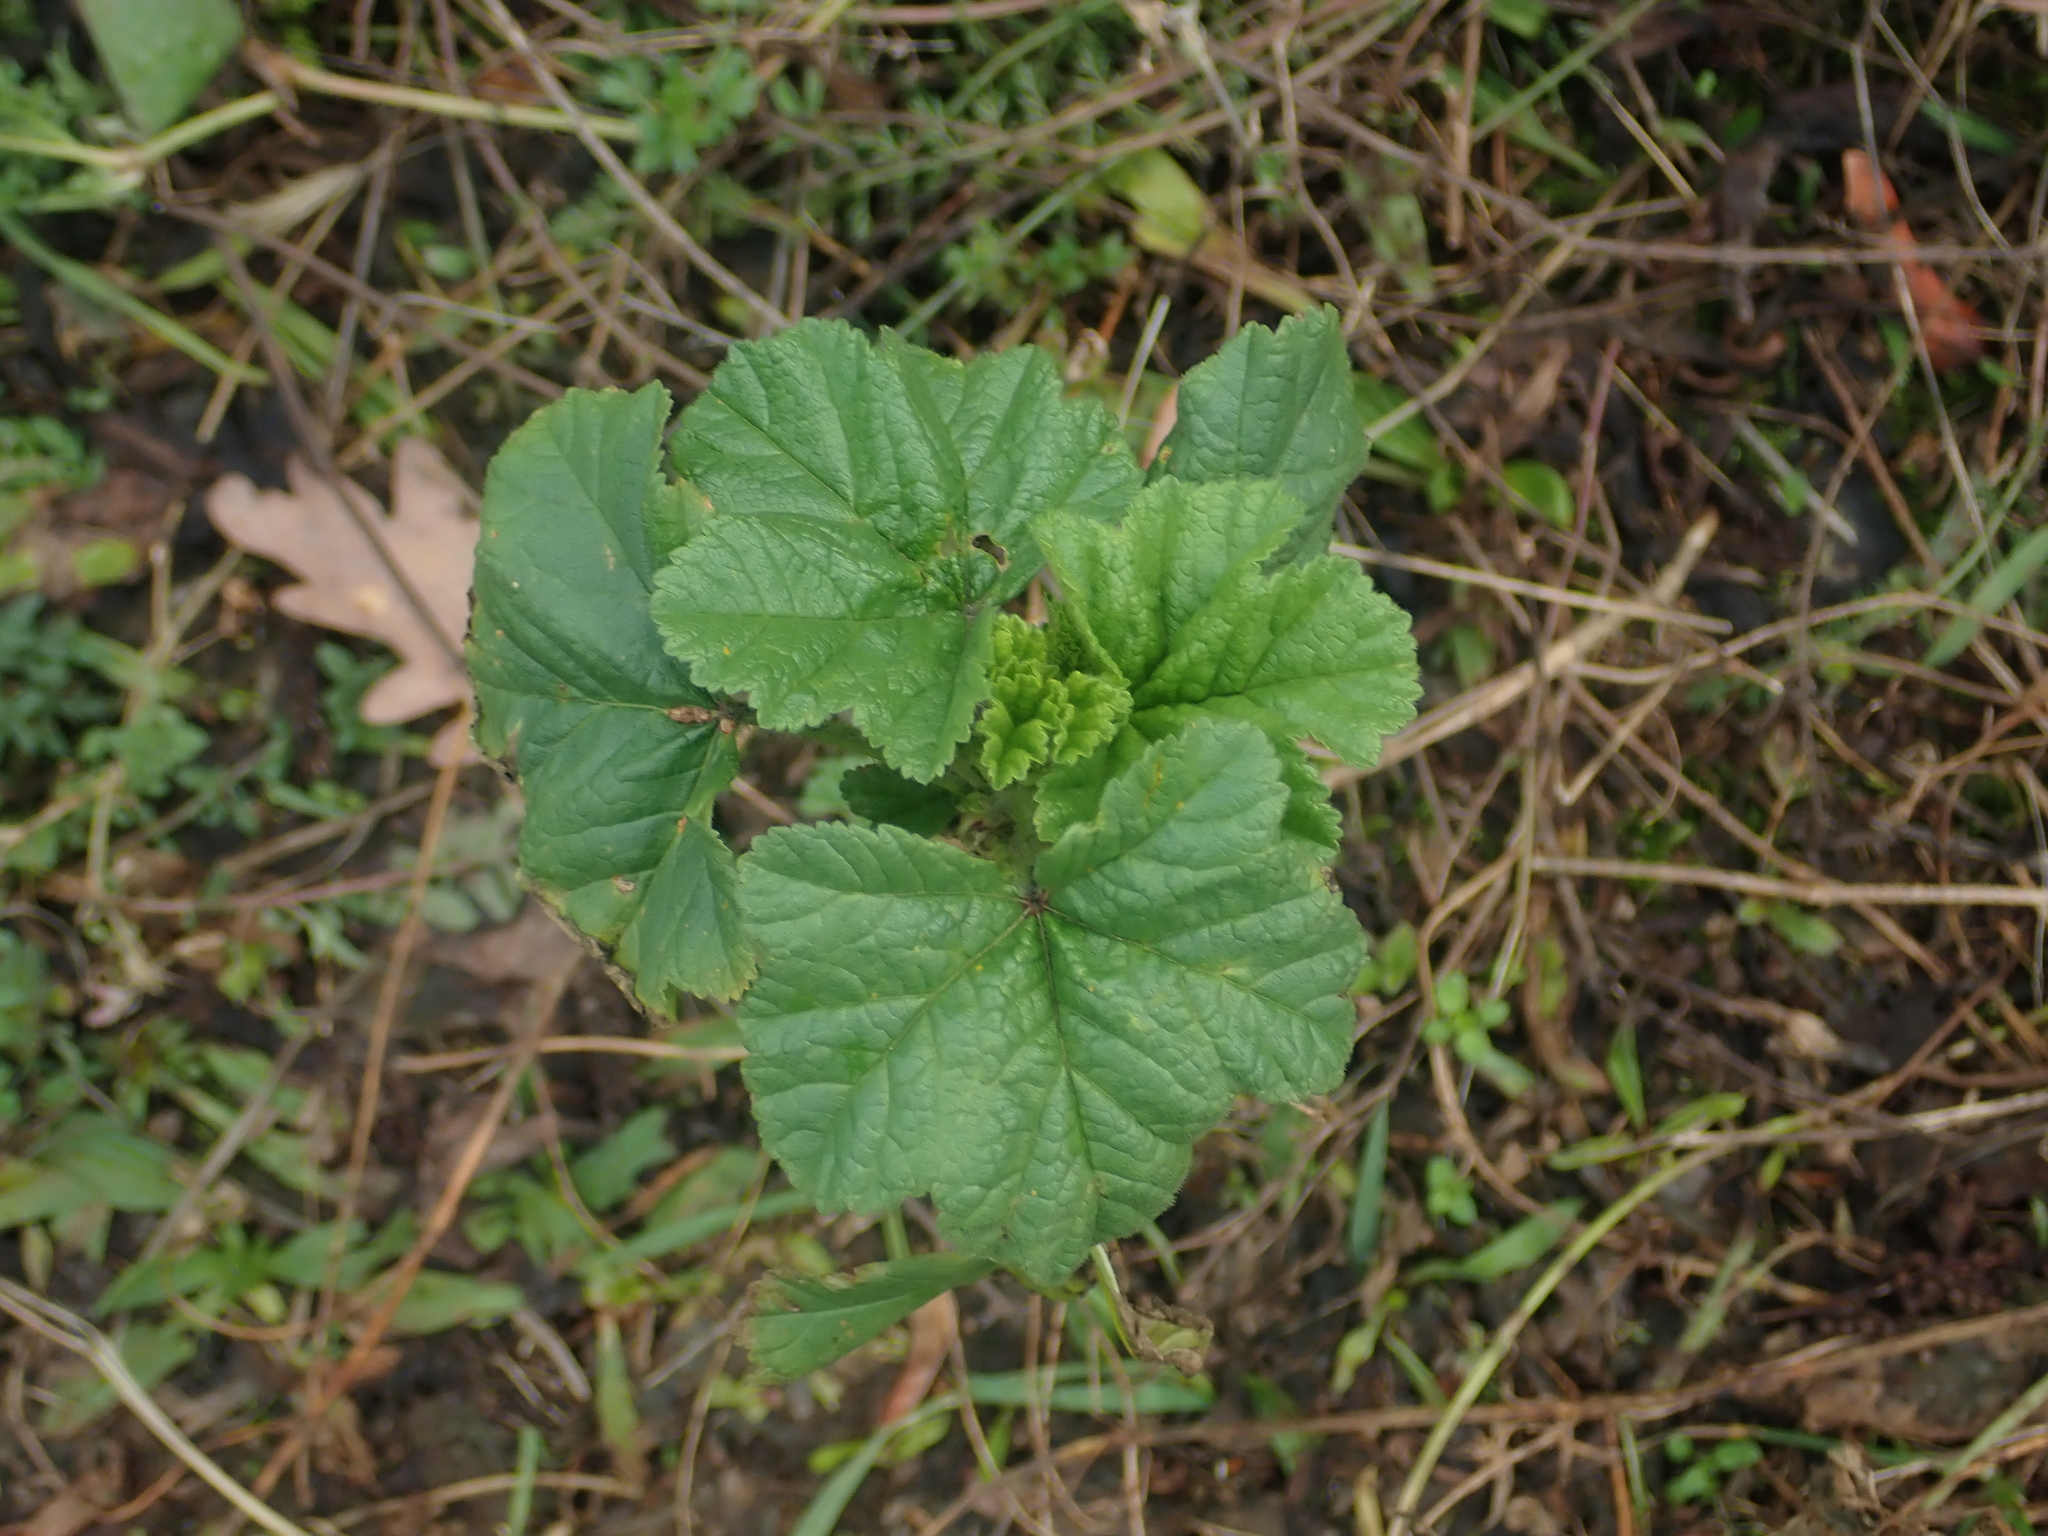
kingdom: Plantae
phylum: Tracheophyta
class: Magnoliopsida
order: Malvales
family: Malvaceae
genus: Malva
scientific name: Malva sylvestris
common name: Common mallow
